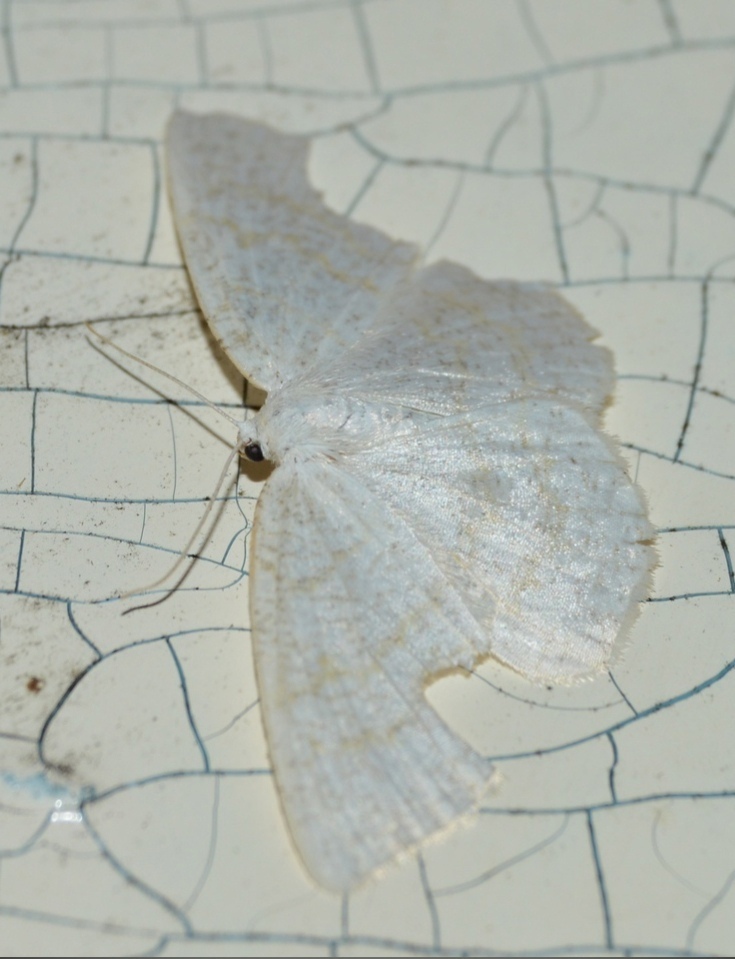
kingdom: Animalia
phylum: Arthropoda
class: Insecta
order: Lepidoptera
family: Geometridae
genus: Cabera
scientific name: Cabera exanthemata
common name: Common wave
